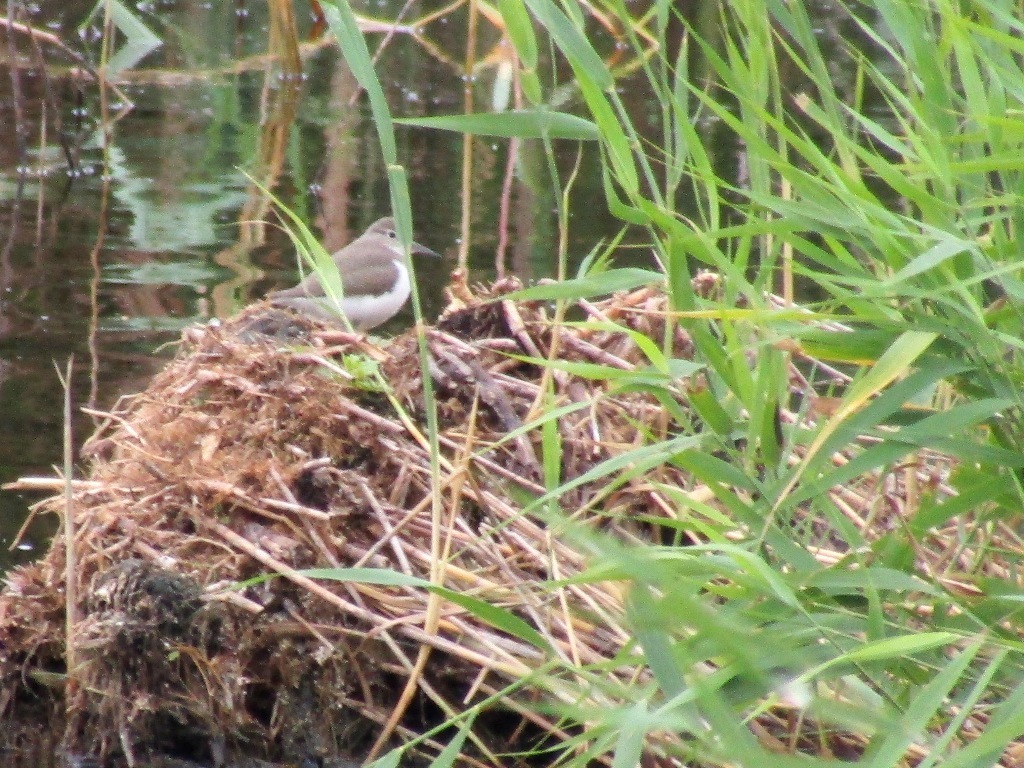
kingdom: Animalia
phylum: Chordata
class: Aves
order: Charadriiformes
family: Scolopacidae
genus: Actitis
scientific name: Actitis hypoleucos
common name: Common sandpiper
